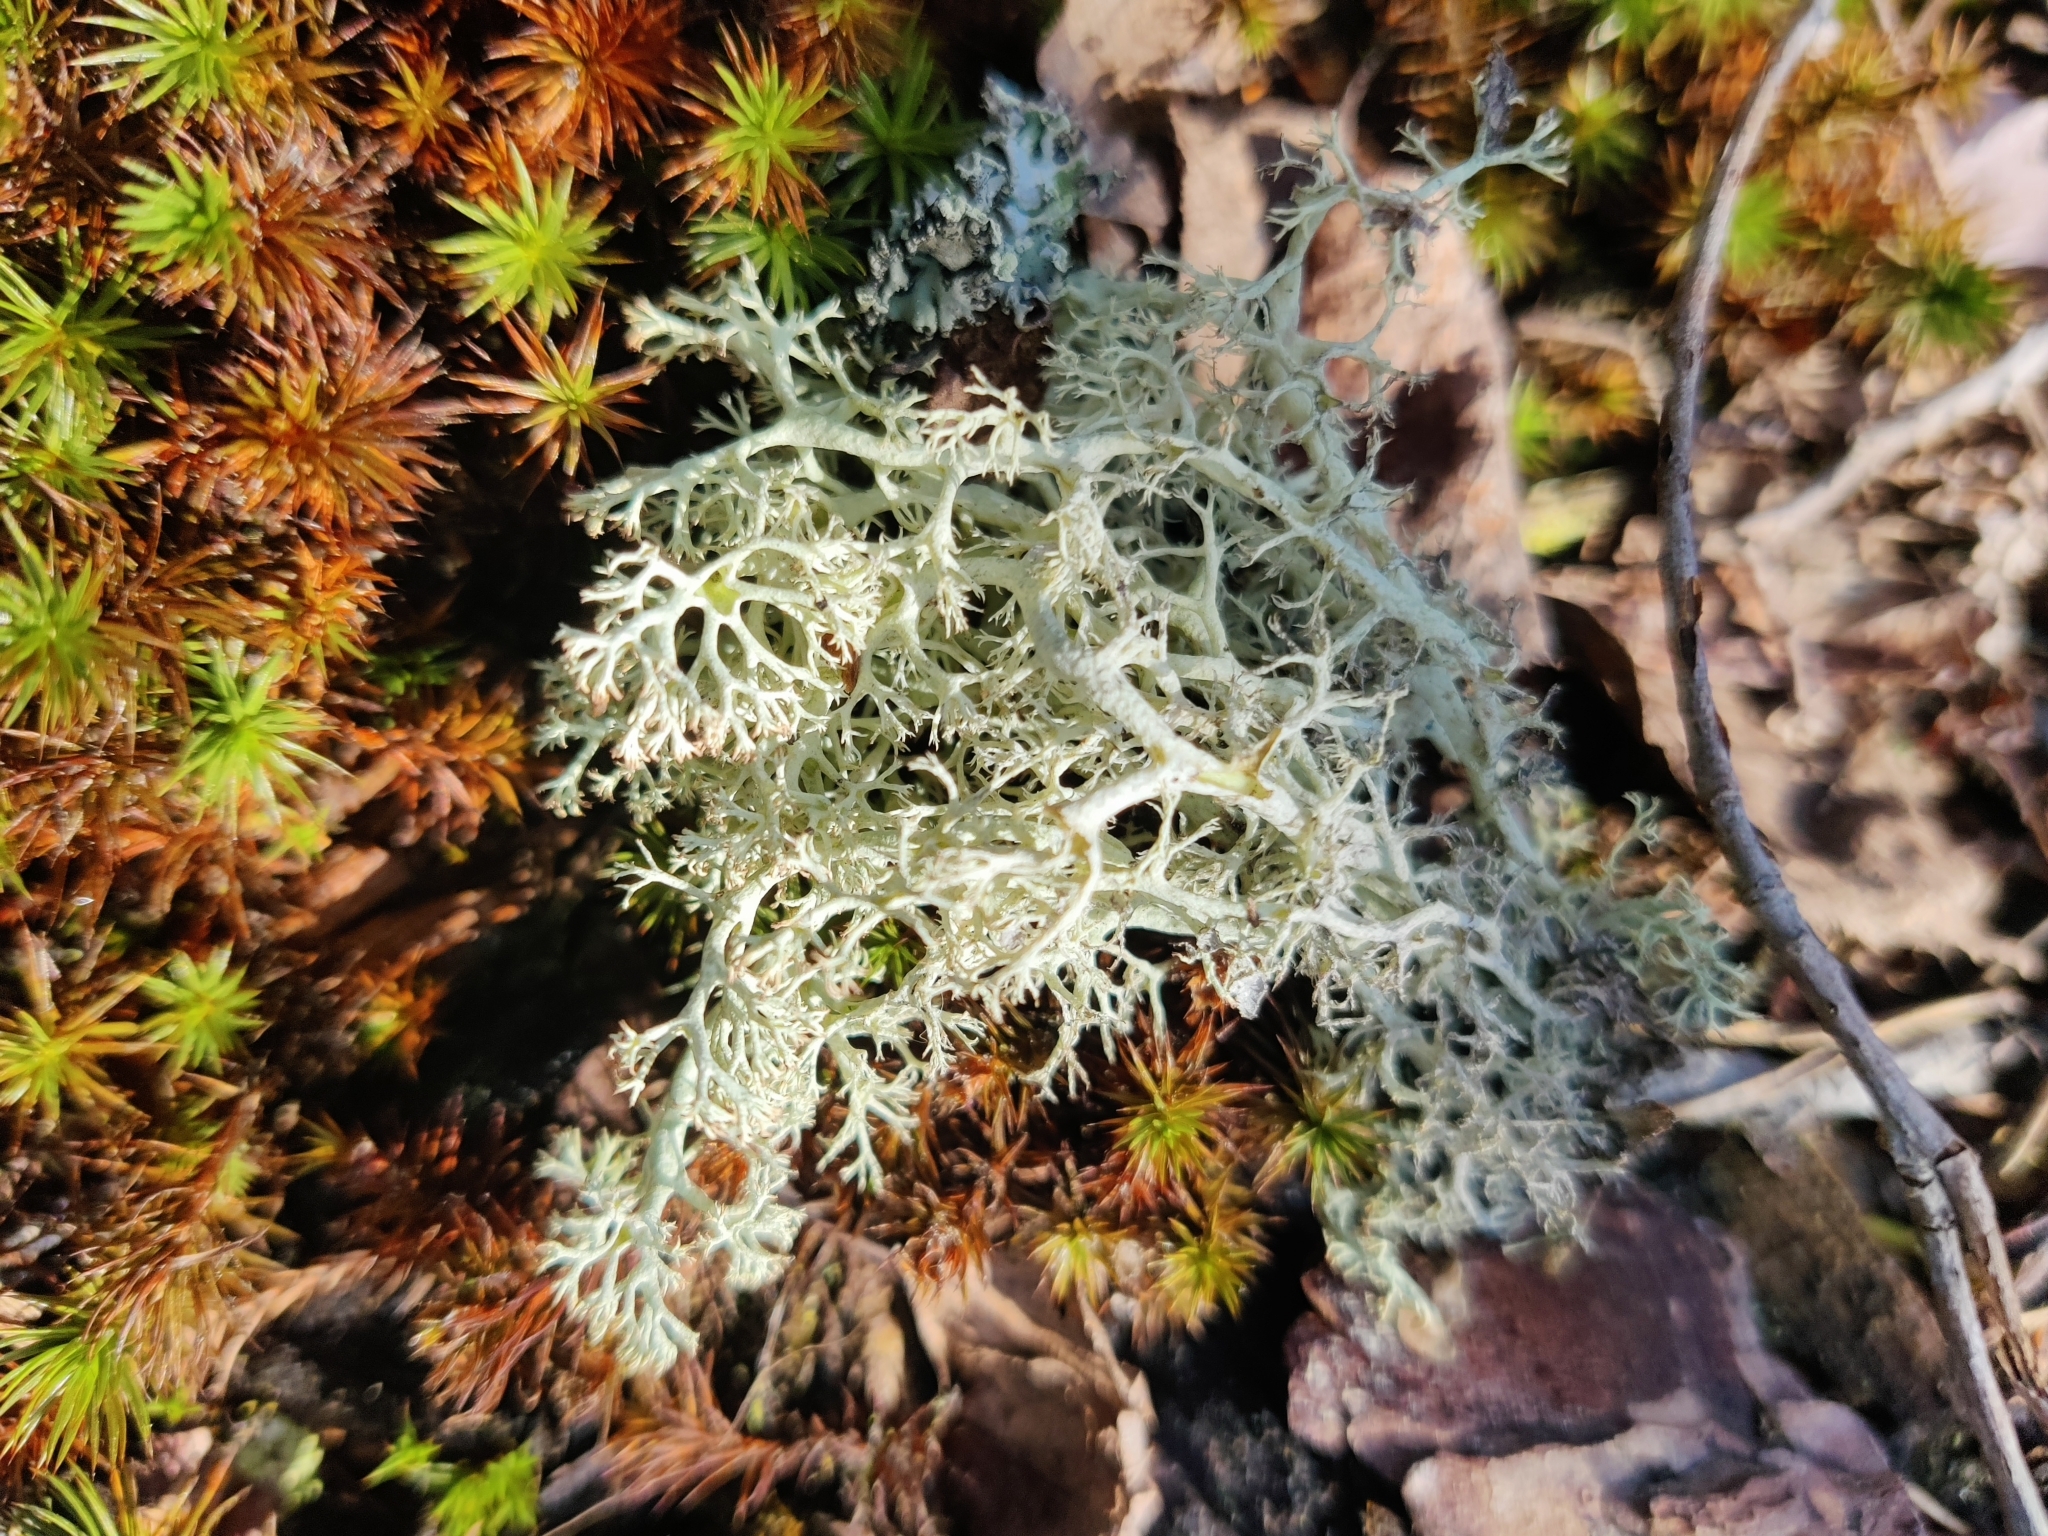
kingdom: Fungi
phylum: Ascomycota
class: Lecanoromycetes
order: Lecanorales
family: Cladoniaceae
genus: Cladonia
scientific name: Cladonia arbuscula
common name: Reindeer lichen
